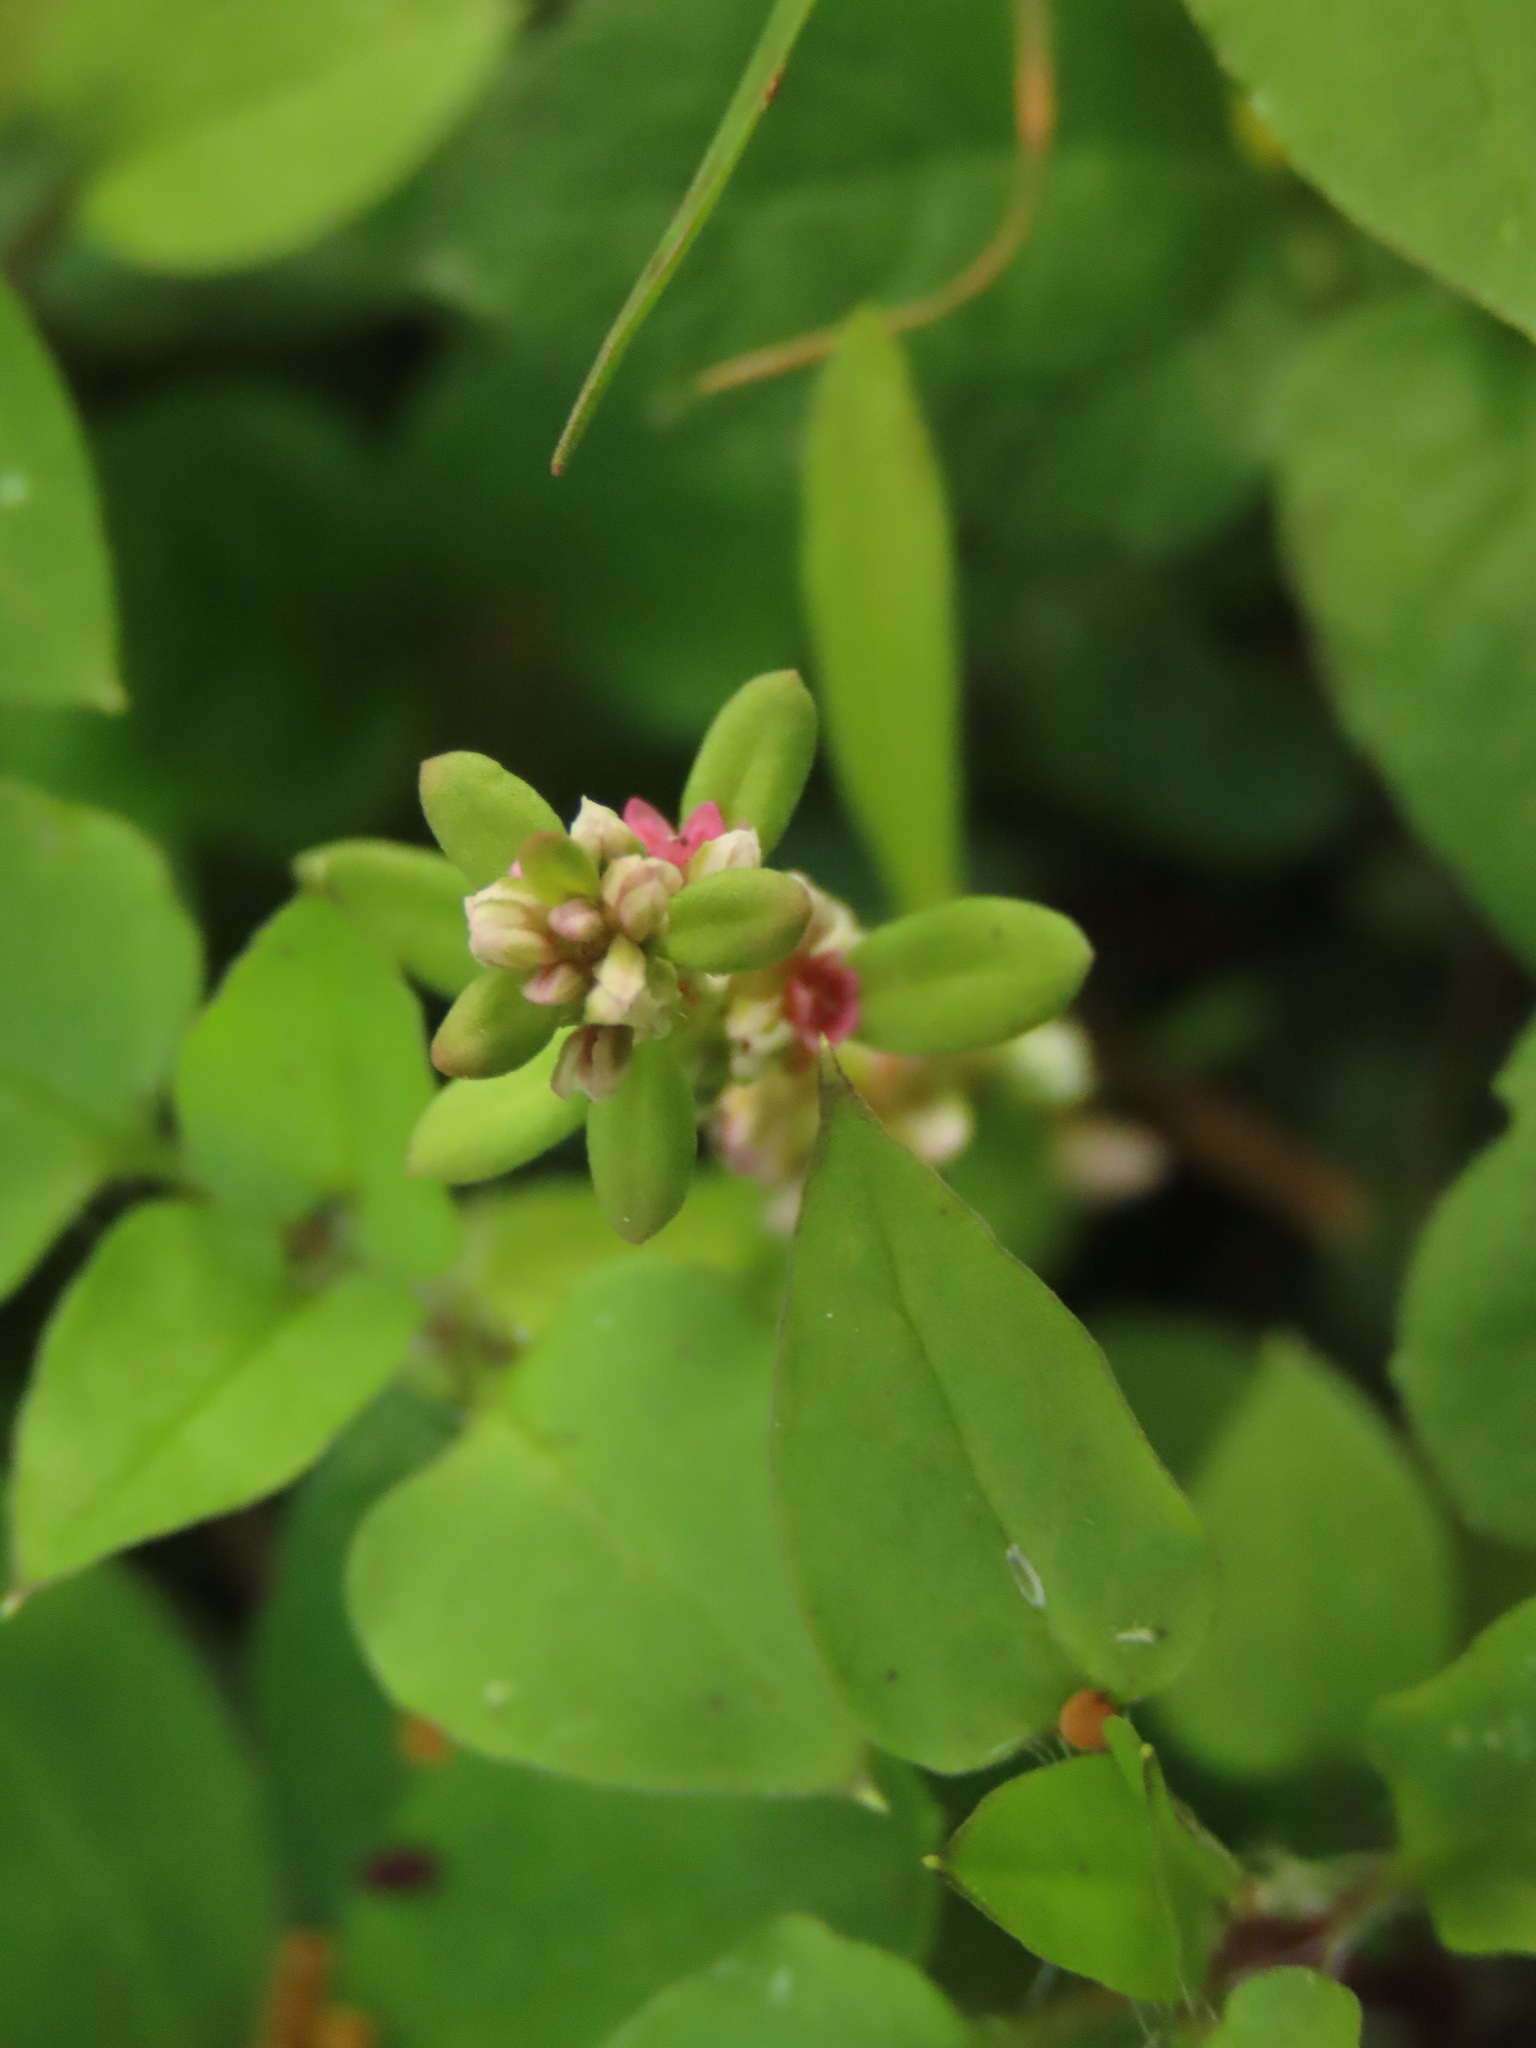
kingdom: Plantae
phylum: Tracheophyta
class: Magnoliopsida
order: Caryophyllales
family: Polygonaceae
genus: Polygonum
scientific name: Polygonum plebeium
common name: Common knotweed
